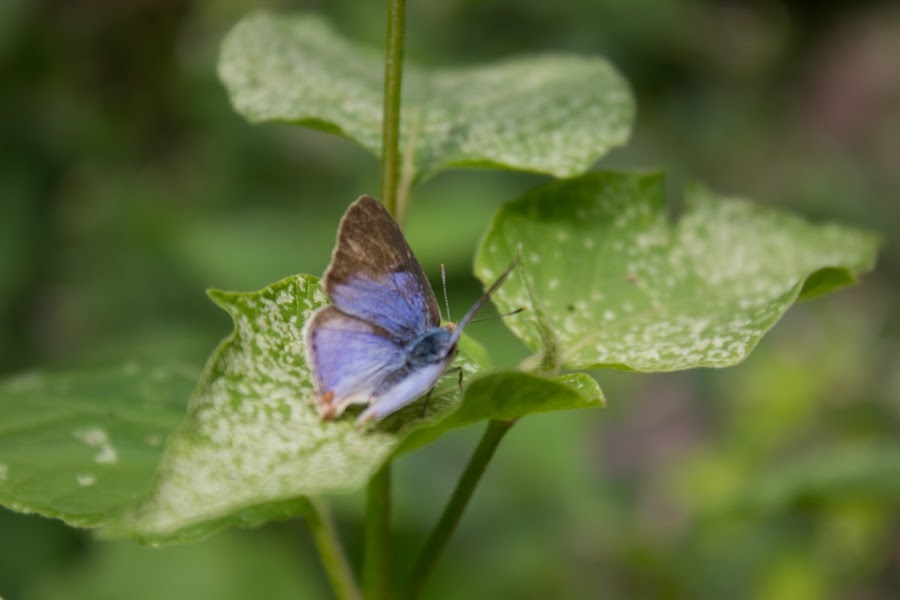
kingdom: Animalia
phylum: Arthropoda
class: Insecta
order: Lepidoptera
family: Lycaenidae
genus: Dolymorpha
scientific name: Dolymorpha jada
